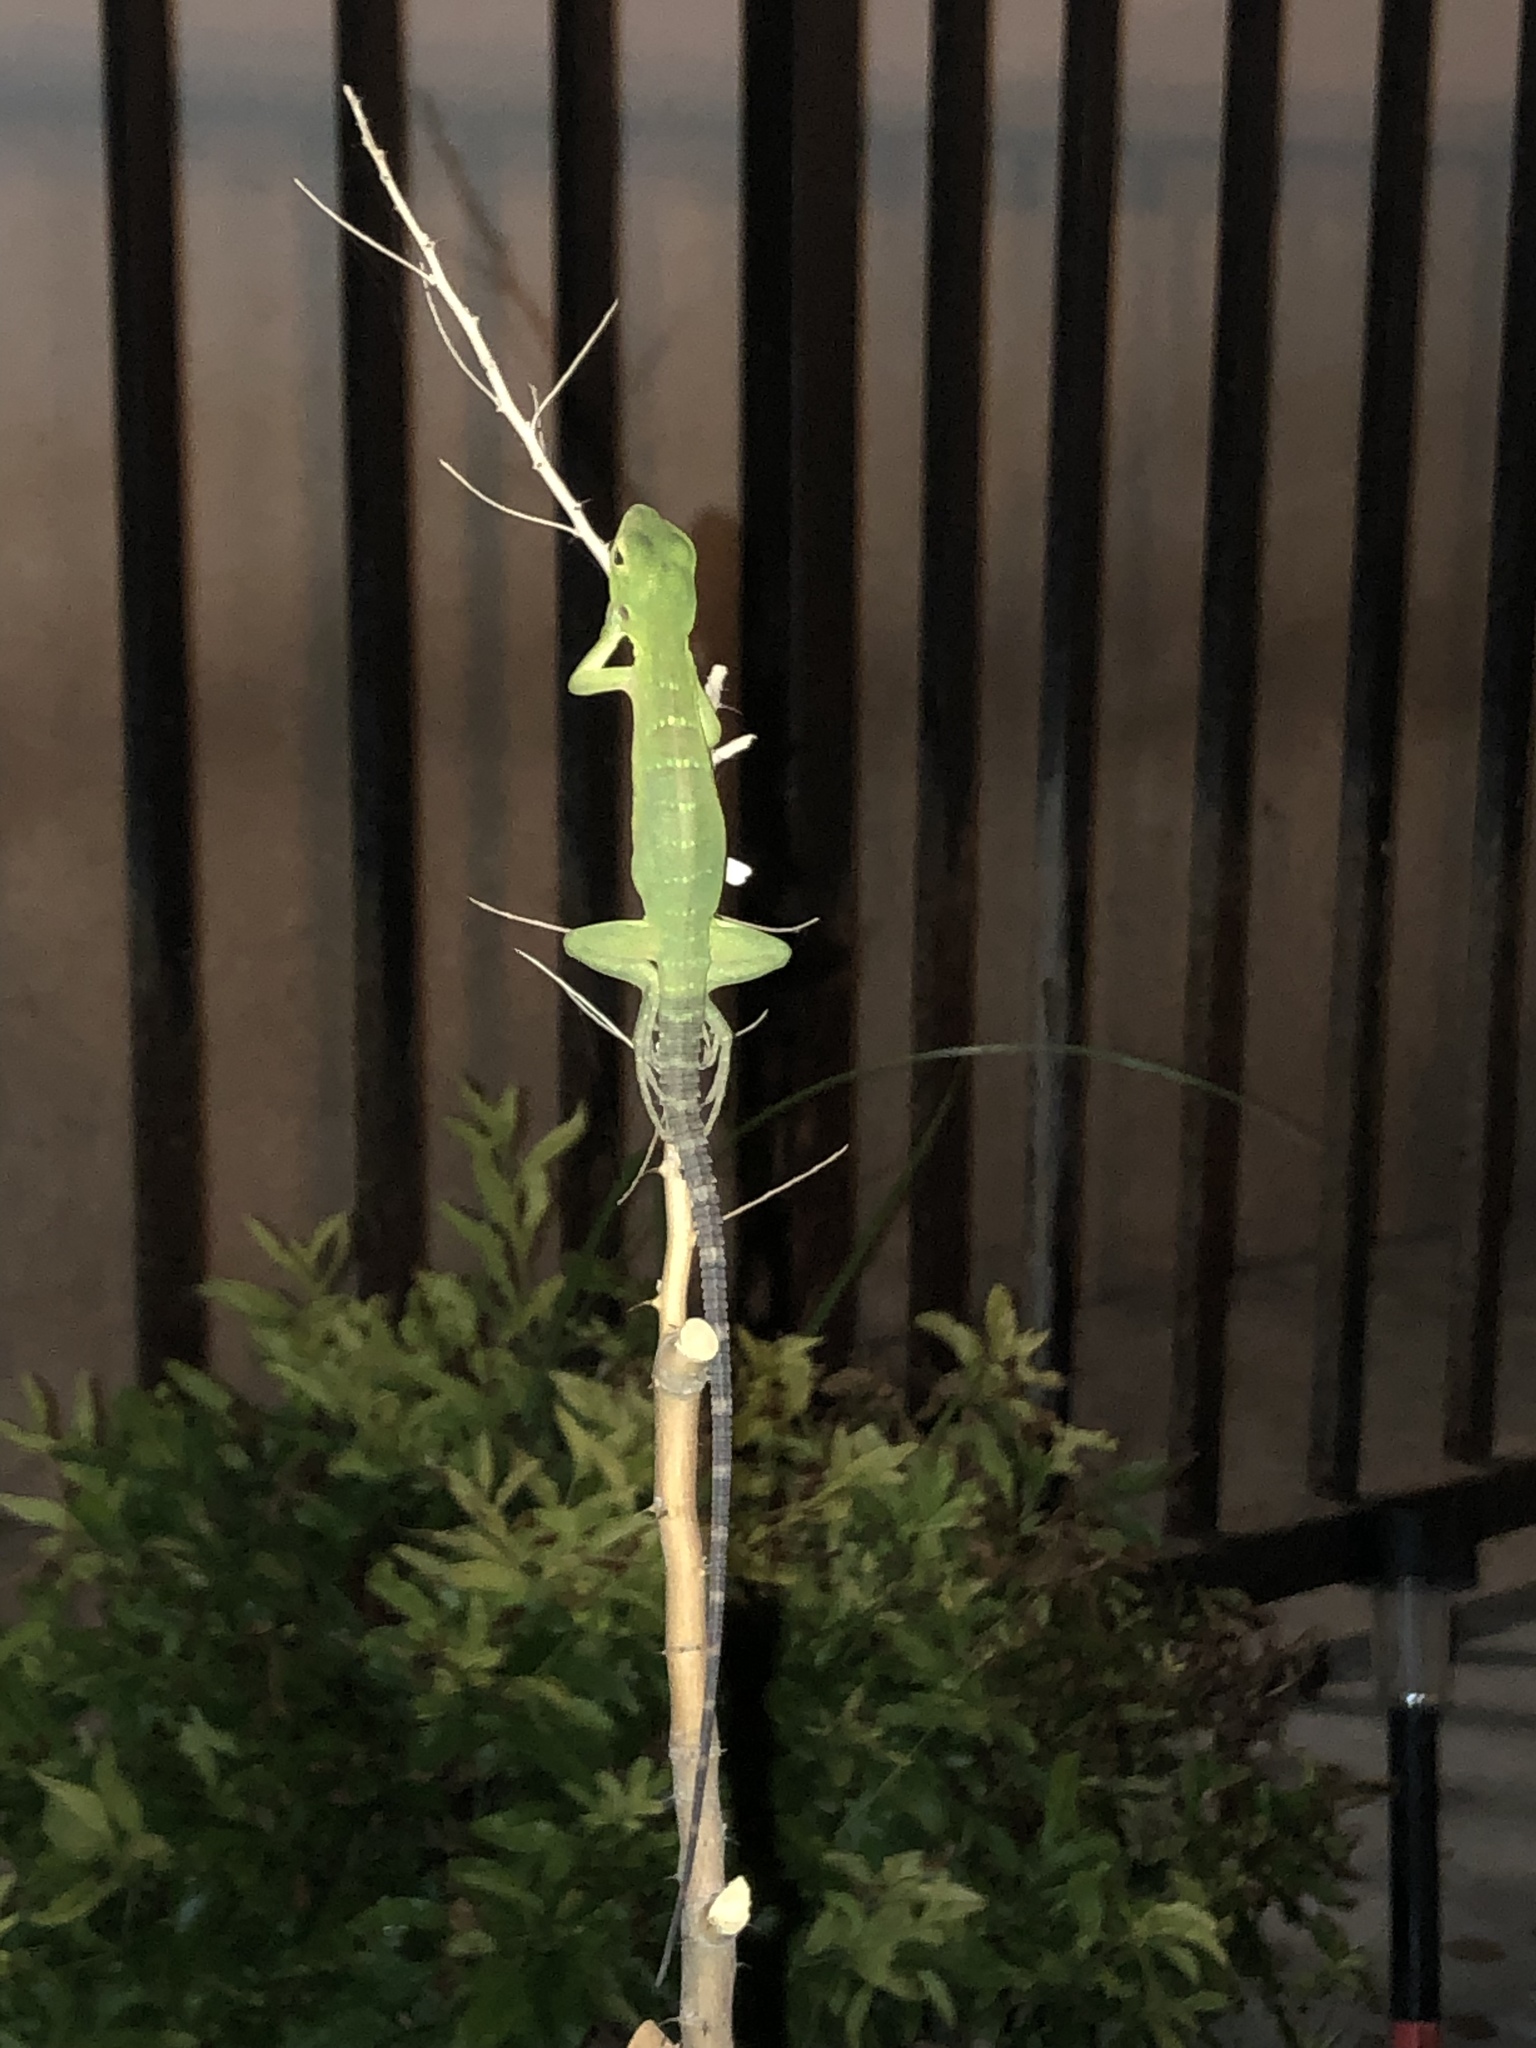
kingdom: Animalia
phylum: Chordata
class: Squamata
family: Iguanidae
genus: Ctenosaura
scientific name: Ctenosaura macrolopha
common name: Cape spinytail iguana
